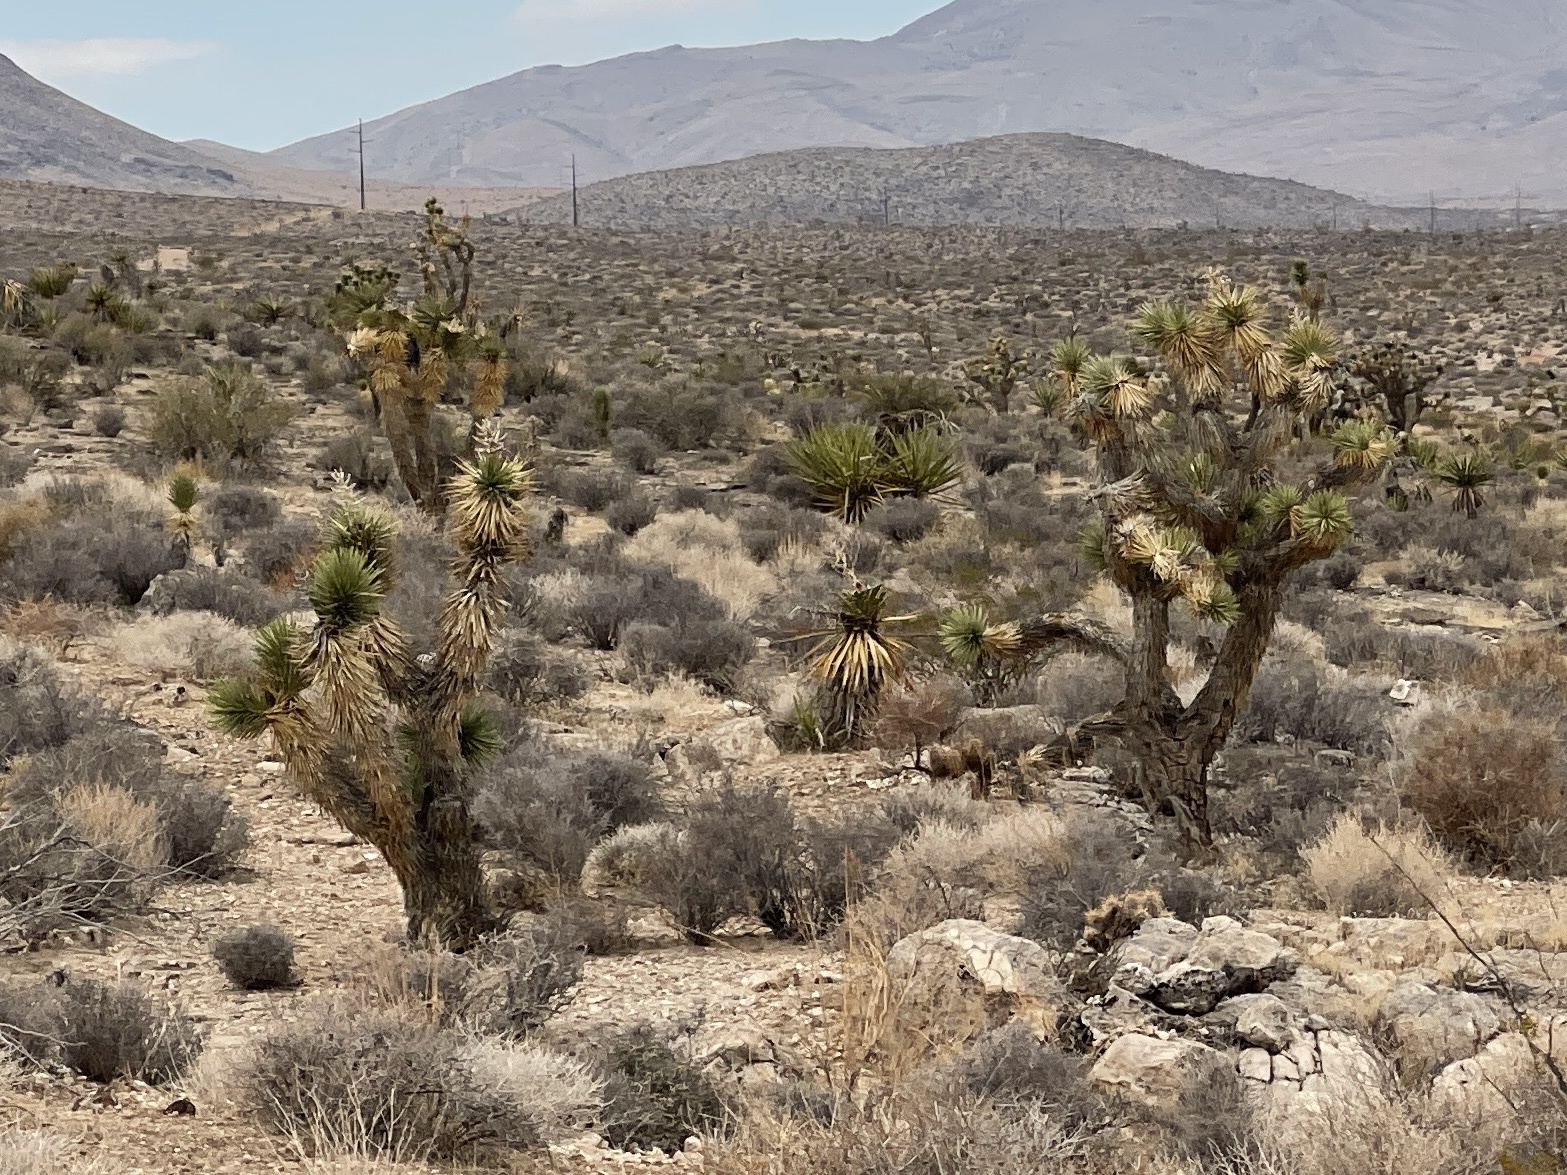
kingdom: Plantae
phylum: Tracheophyta
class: Liliopsida
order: Asparagales
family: Asparagaceae
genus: Yucca
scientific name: Yucca brevifolia
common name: Joshua tree
